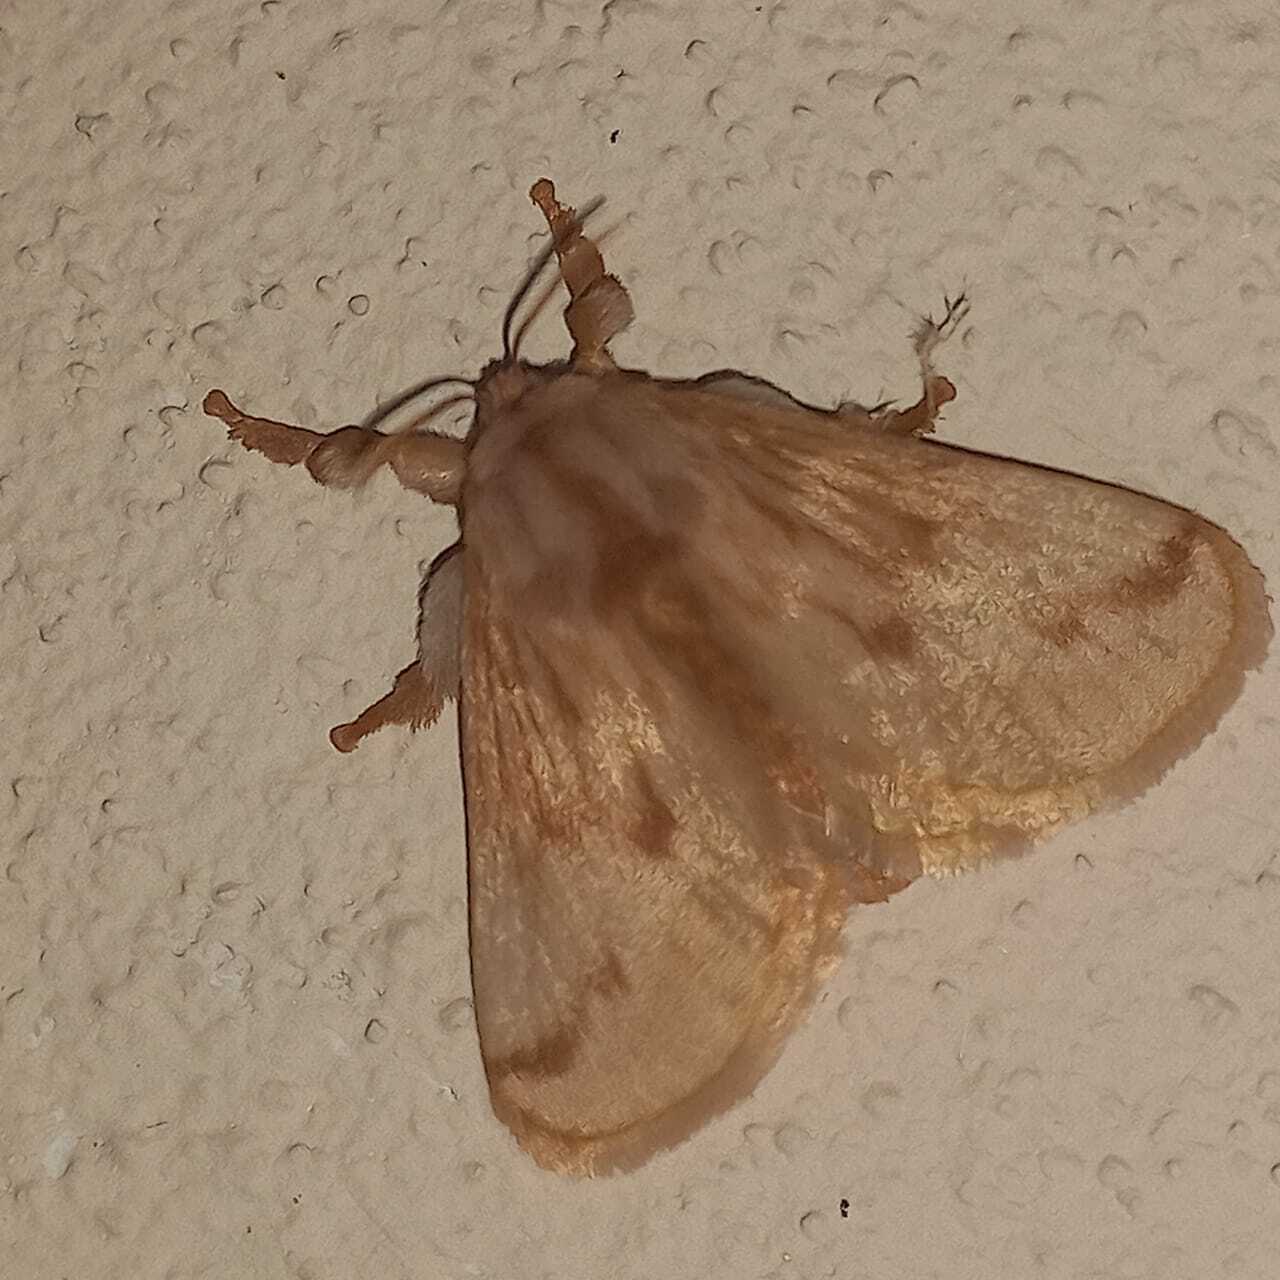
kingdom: Animalia
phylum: Arthropoda
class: Insecta
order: Lepidoptera
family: Limacodidae
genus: Perola
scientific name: Perola sericea
